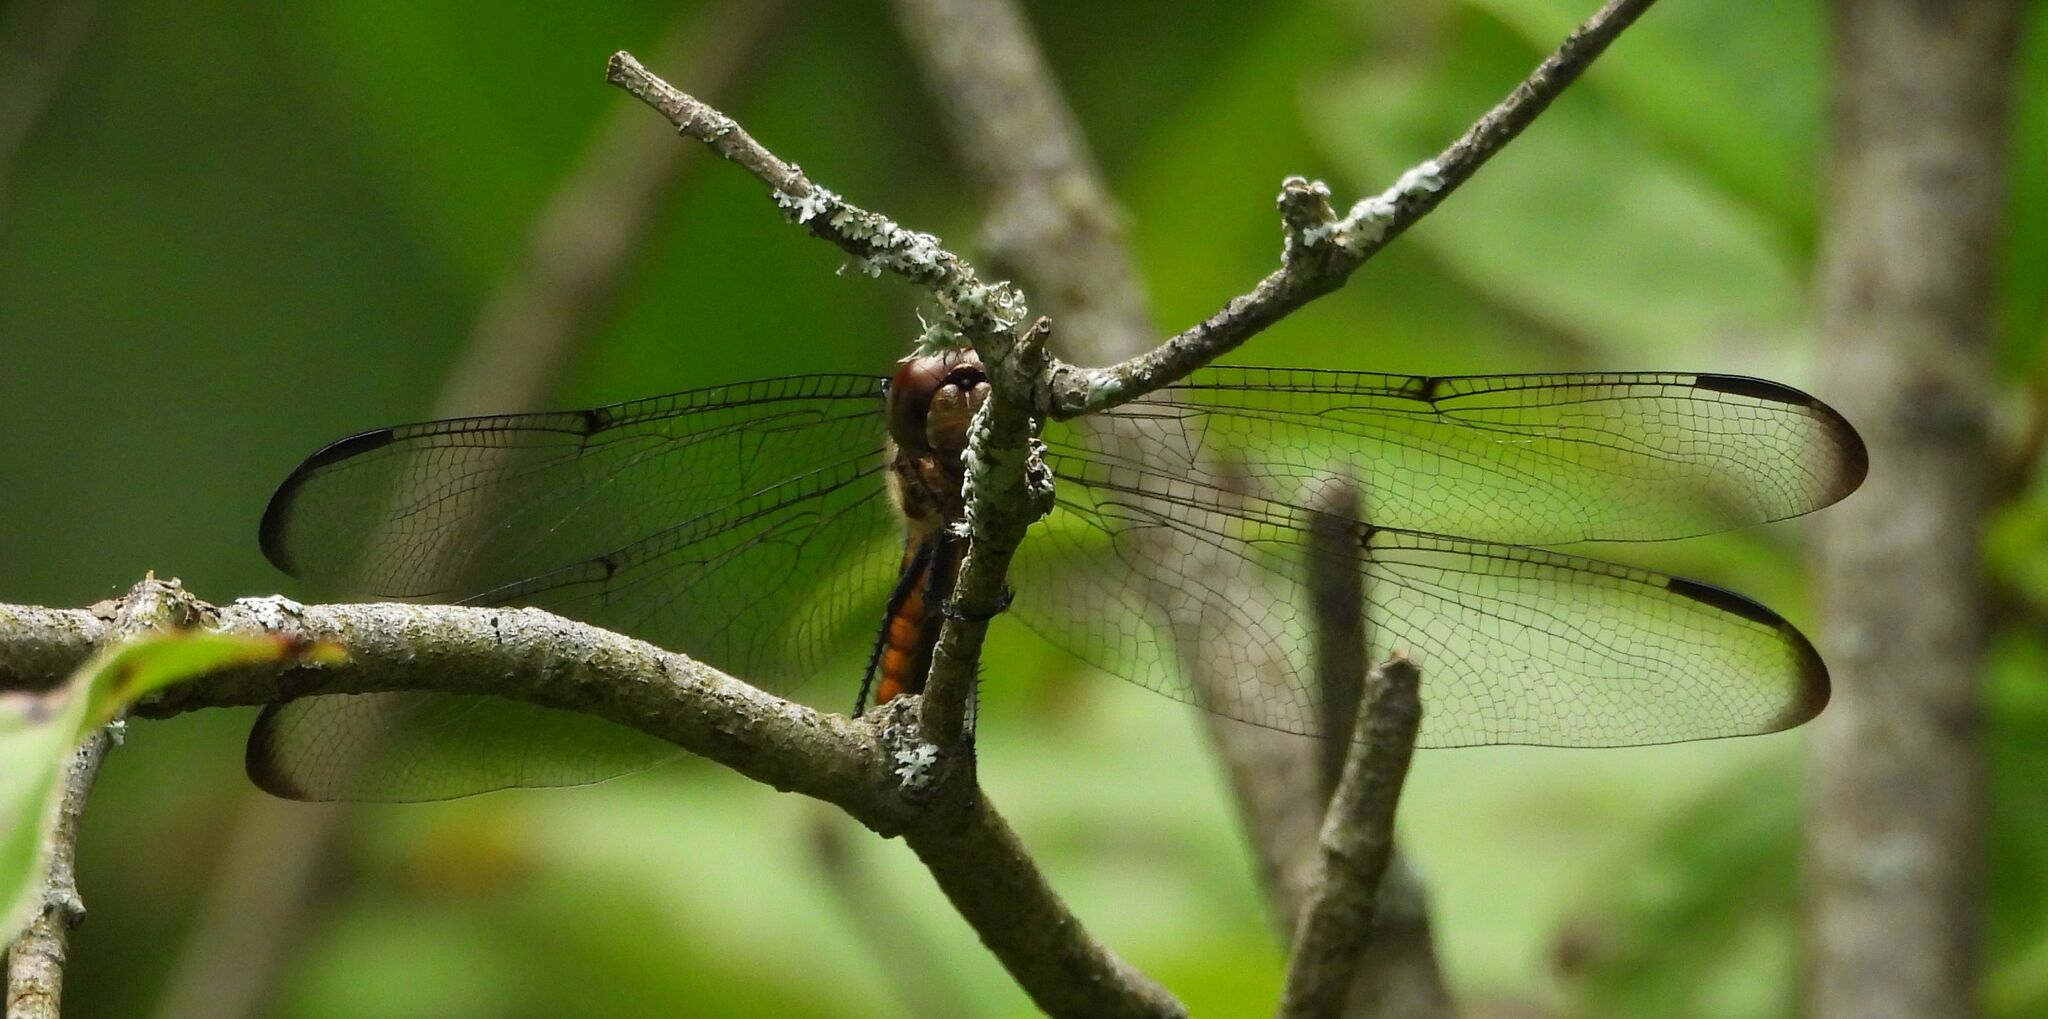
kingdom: Animalia
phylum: Arthropoda
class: Insecta
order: Odonata
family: Libellulidae
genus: Libellula
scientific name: Libellula incesta
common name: Slaty skimmer
